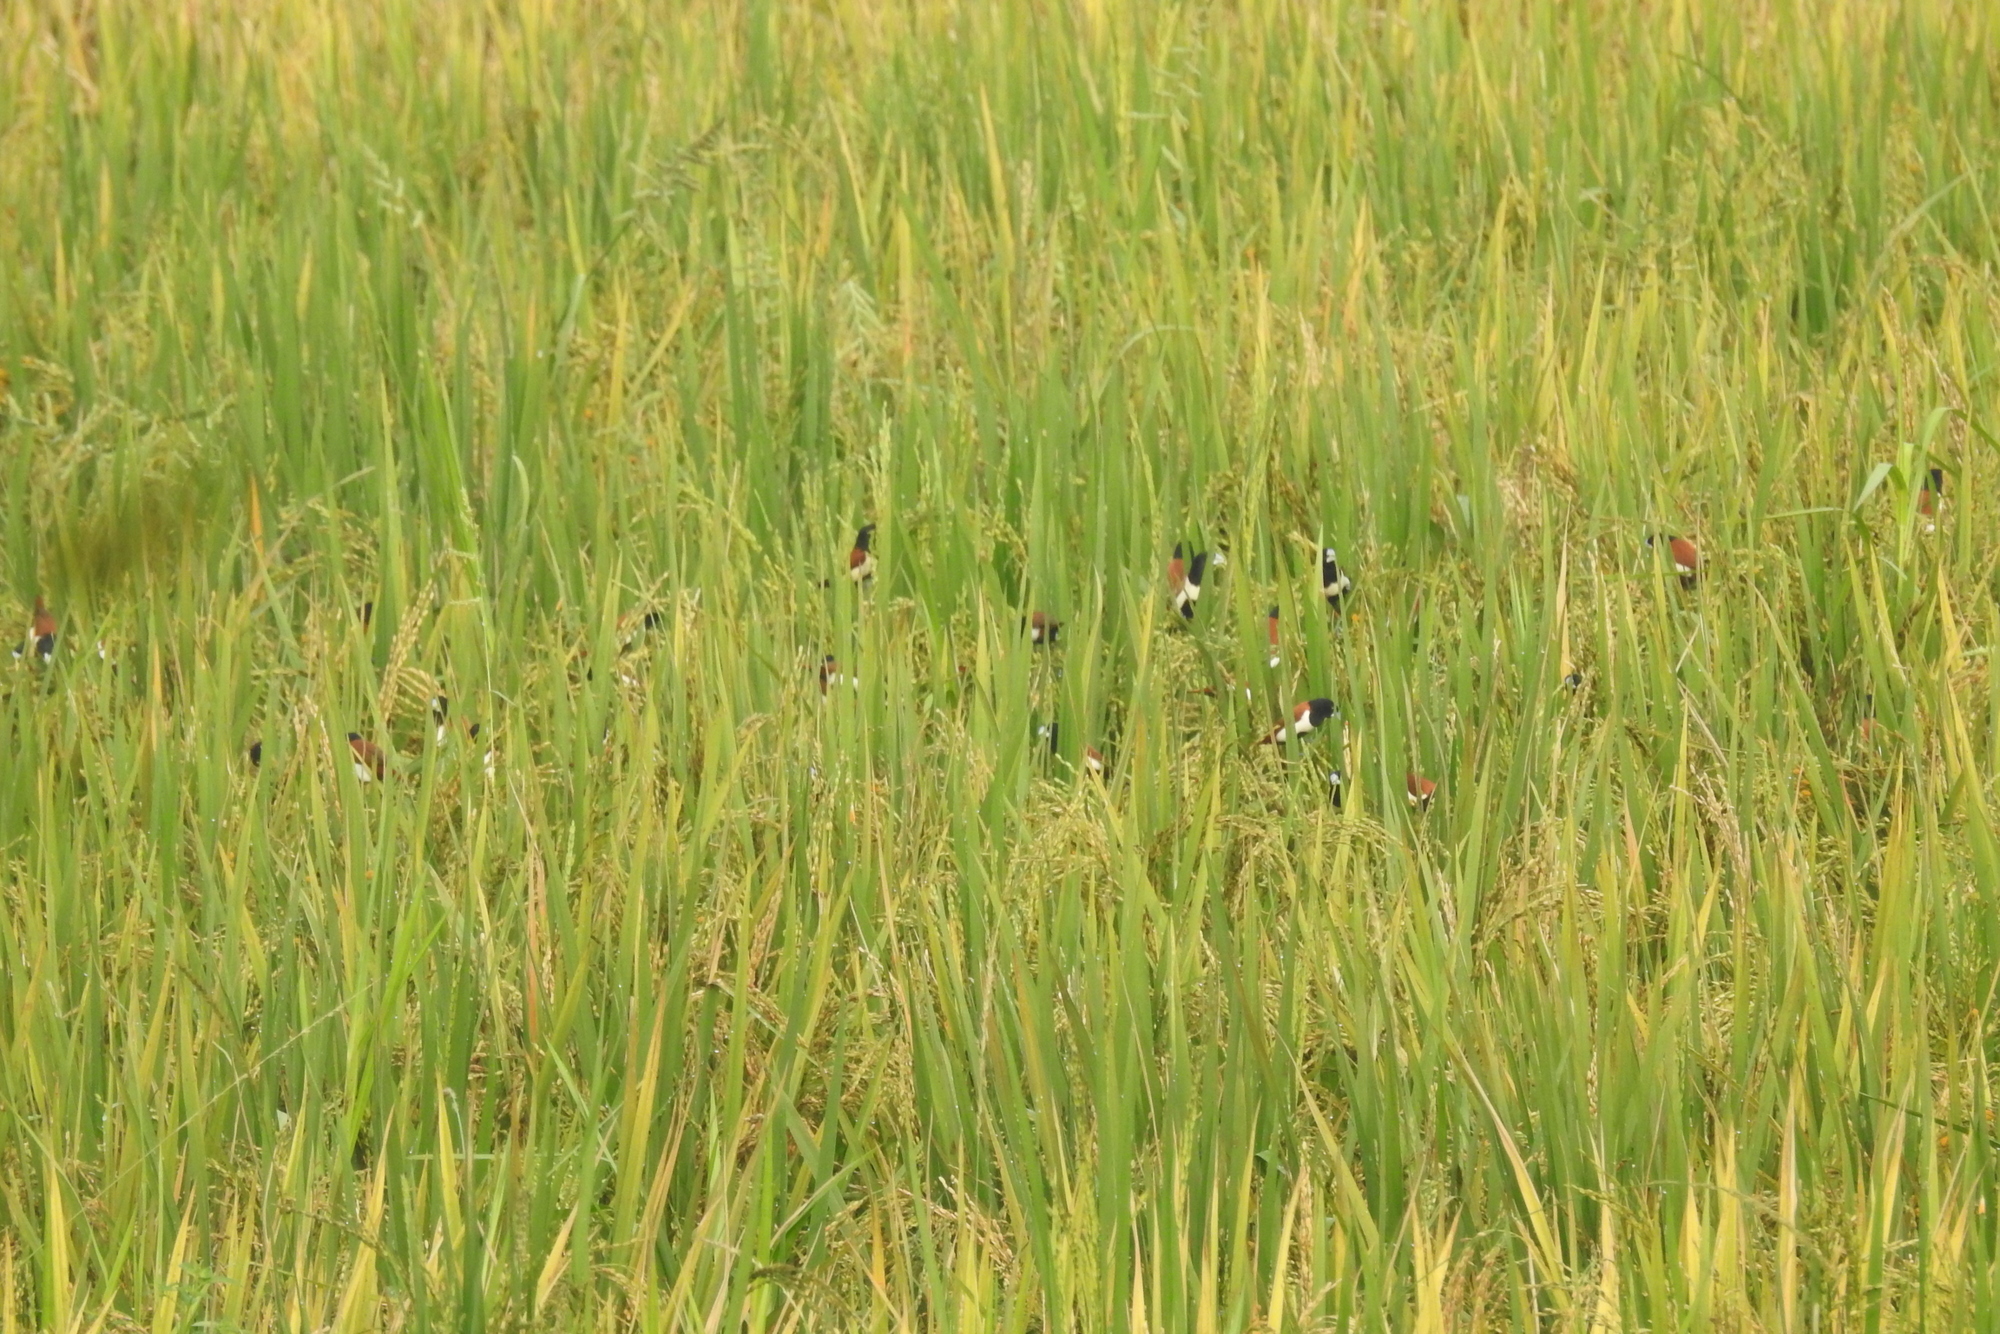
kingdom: Animalia
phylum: Chordata
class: Aves
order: Passeriformes
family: Estrildidae
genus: Lonchura
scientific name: Lonchura malacca
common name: Tricolored munia
